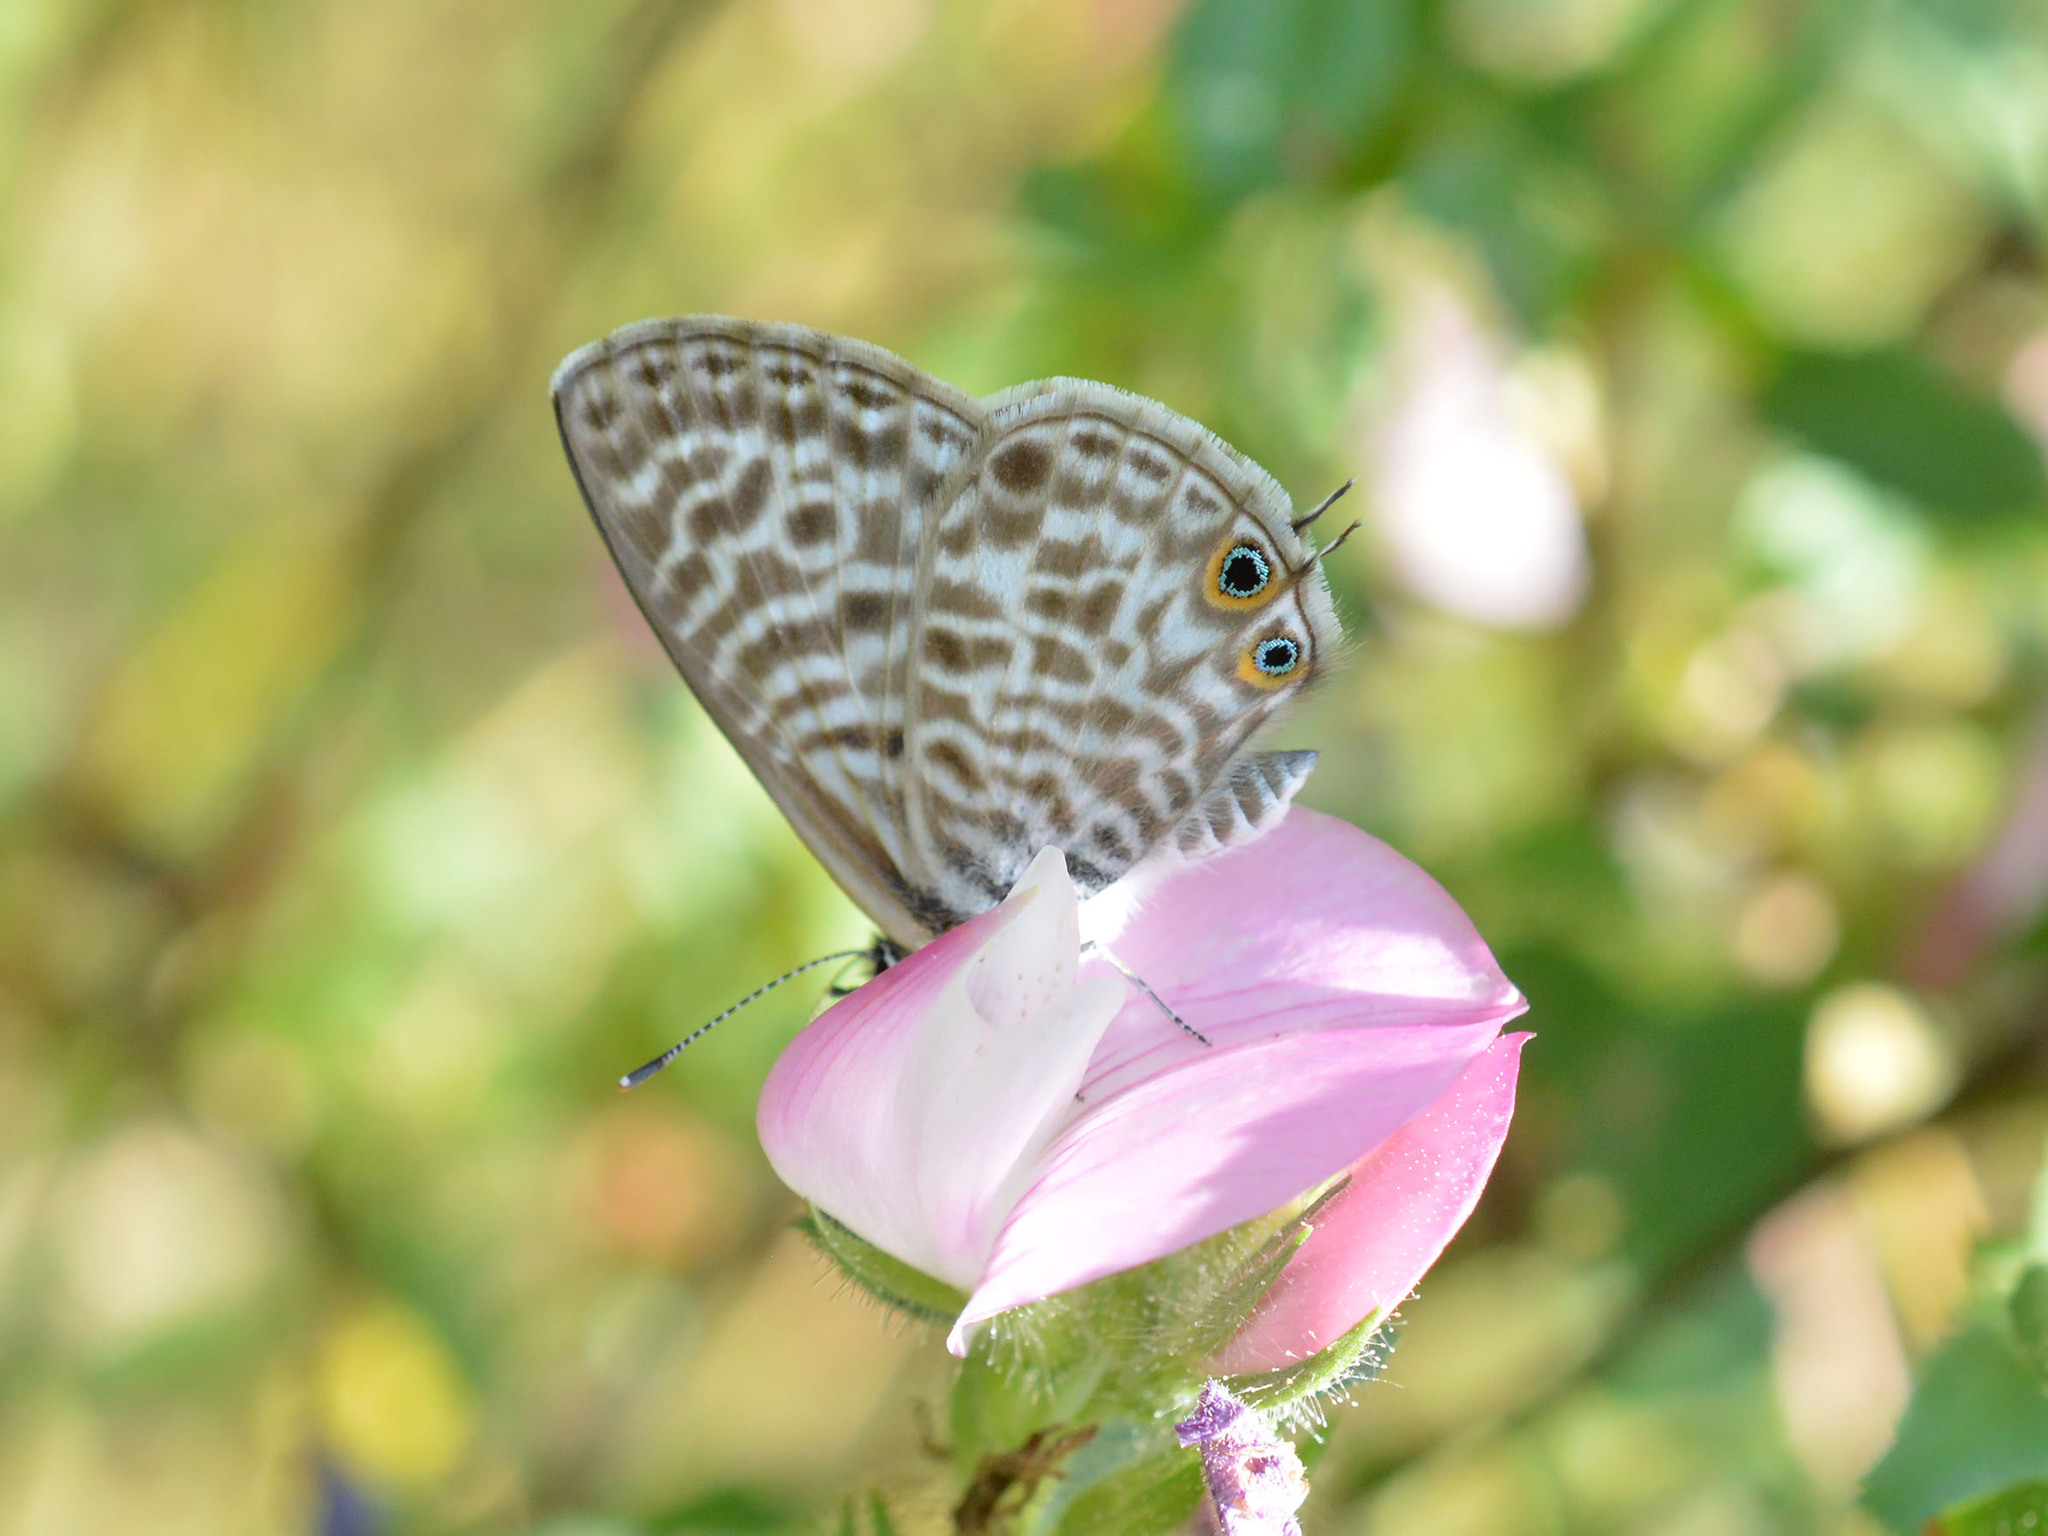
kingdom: Animalia
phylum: Arthropoda
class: Insecta
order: Lepidoptera
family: Lycaenidae
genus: Leptotes
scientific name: Leptotes pirithous
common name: Lang's short-tailed blue
